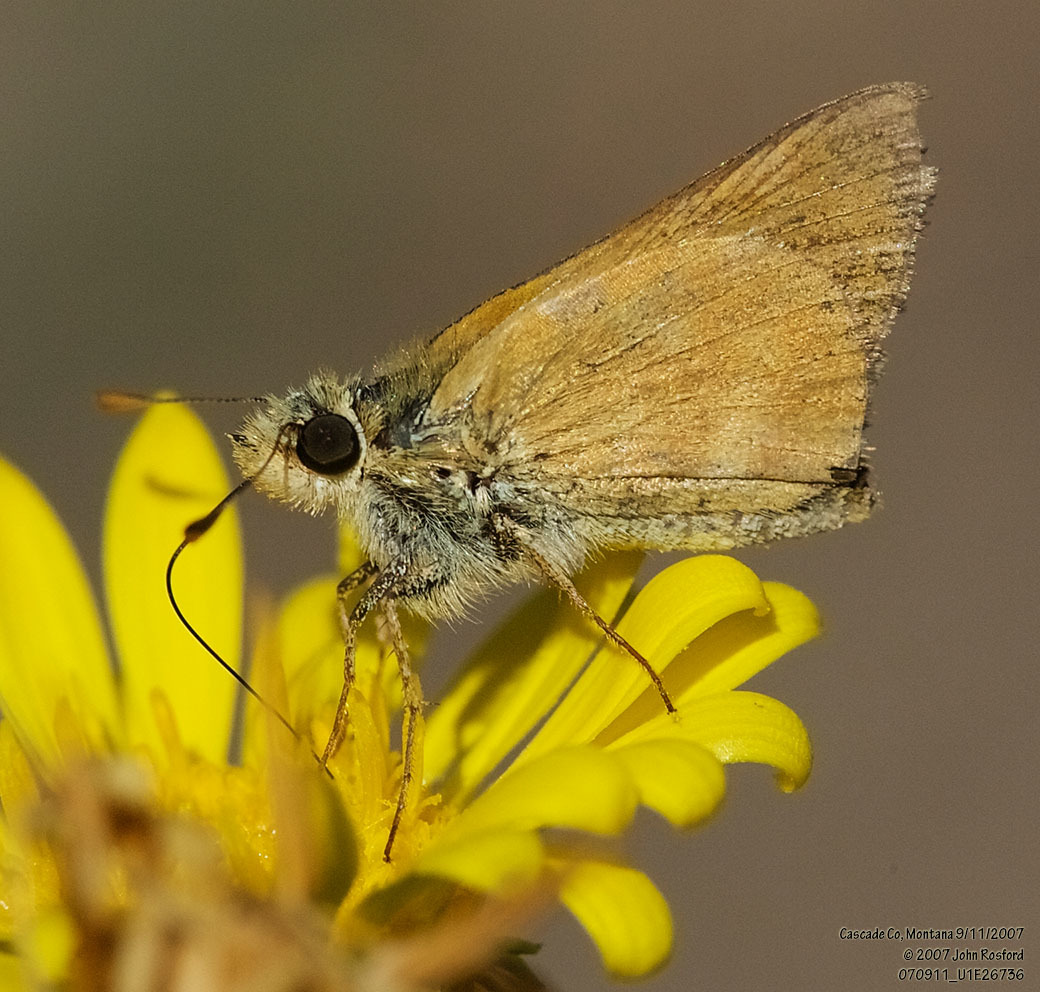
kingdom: Animalia
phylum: Arthropoda
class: Insecta
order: Lepidoptera
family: Hesperiidae
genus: Ochlodes
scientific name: Ochlodes sylvanoides
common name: Woodland skipper
